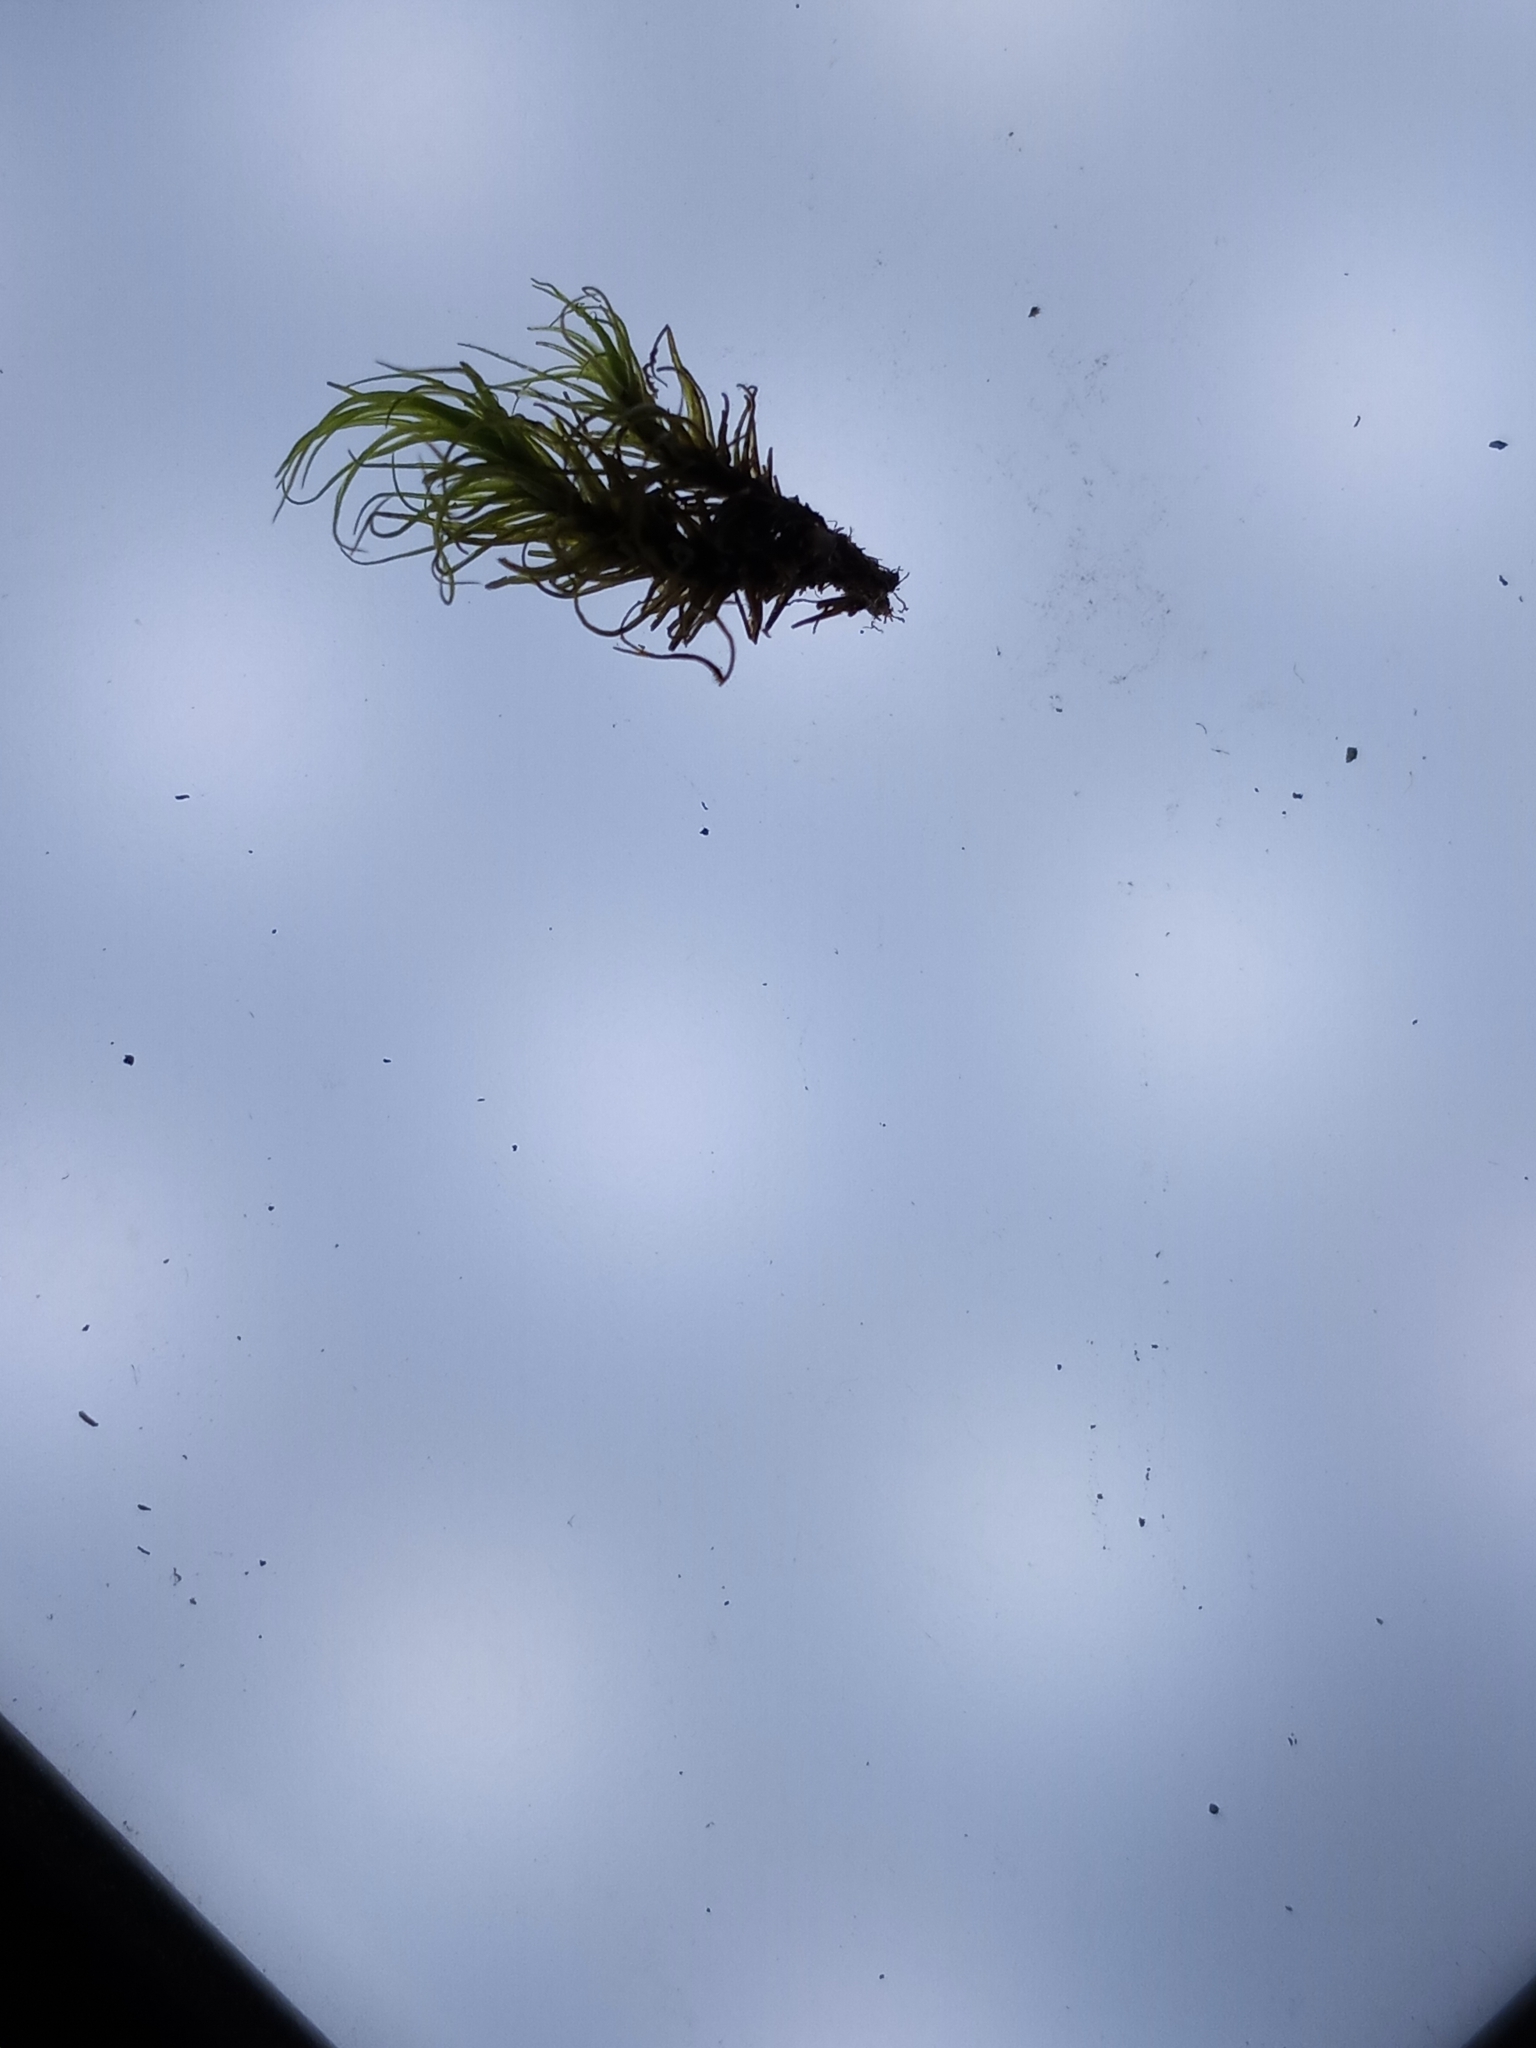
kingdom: Plantae
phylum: Bryophyta
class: Bryopsida
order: Dicranales
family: Dicranaceae
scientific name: Dicranaceae
